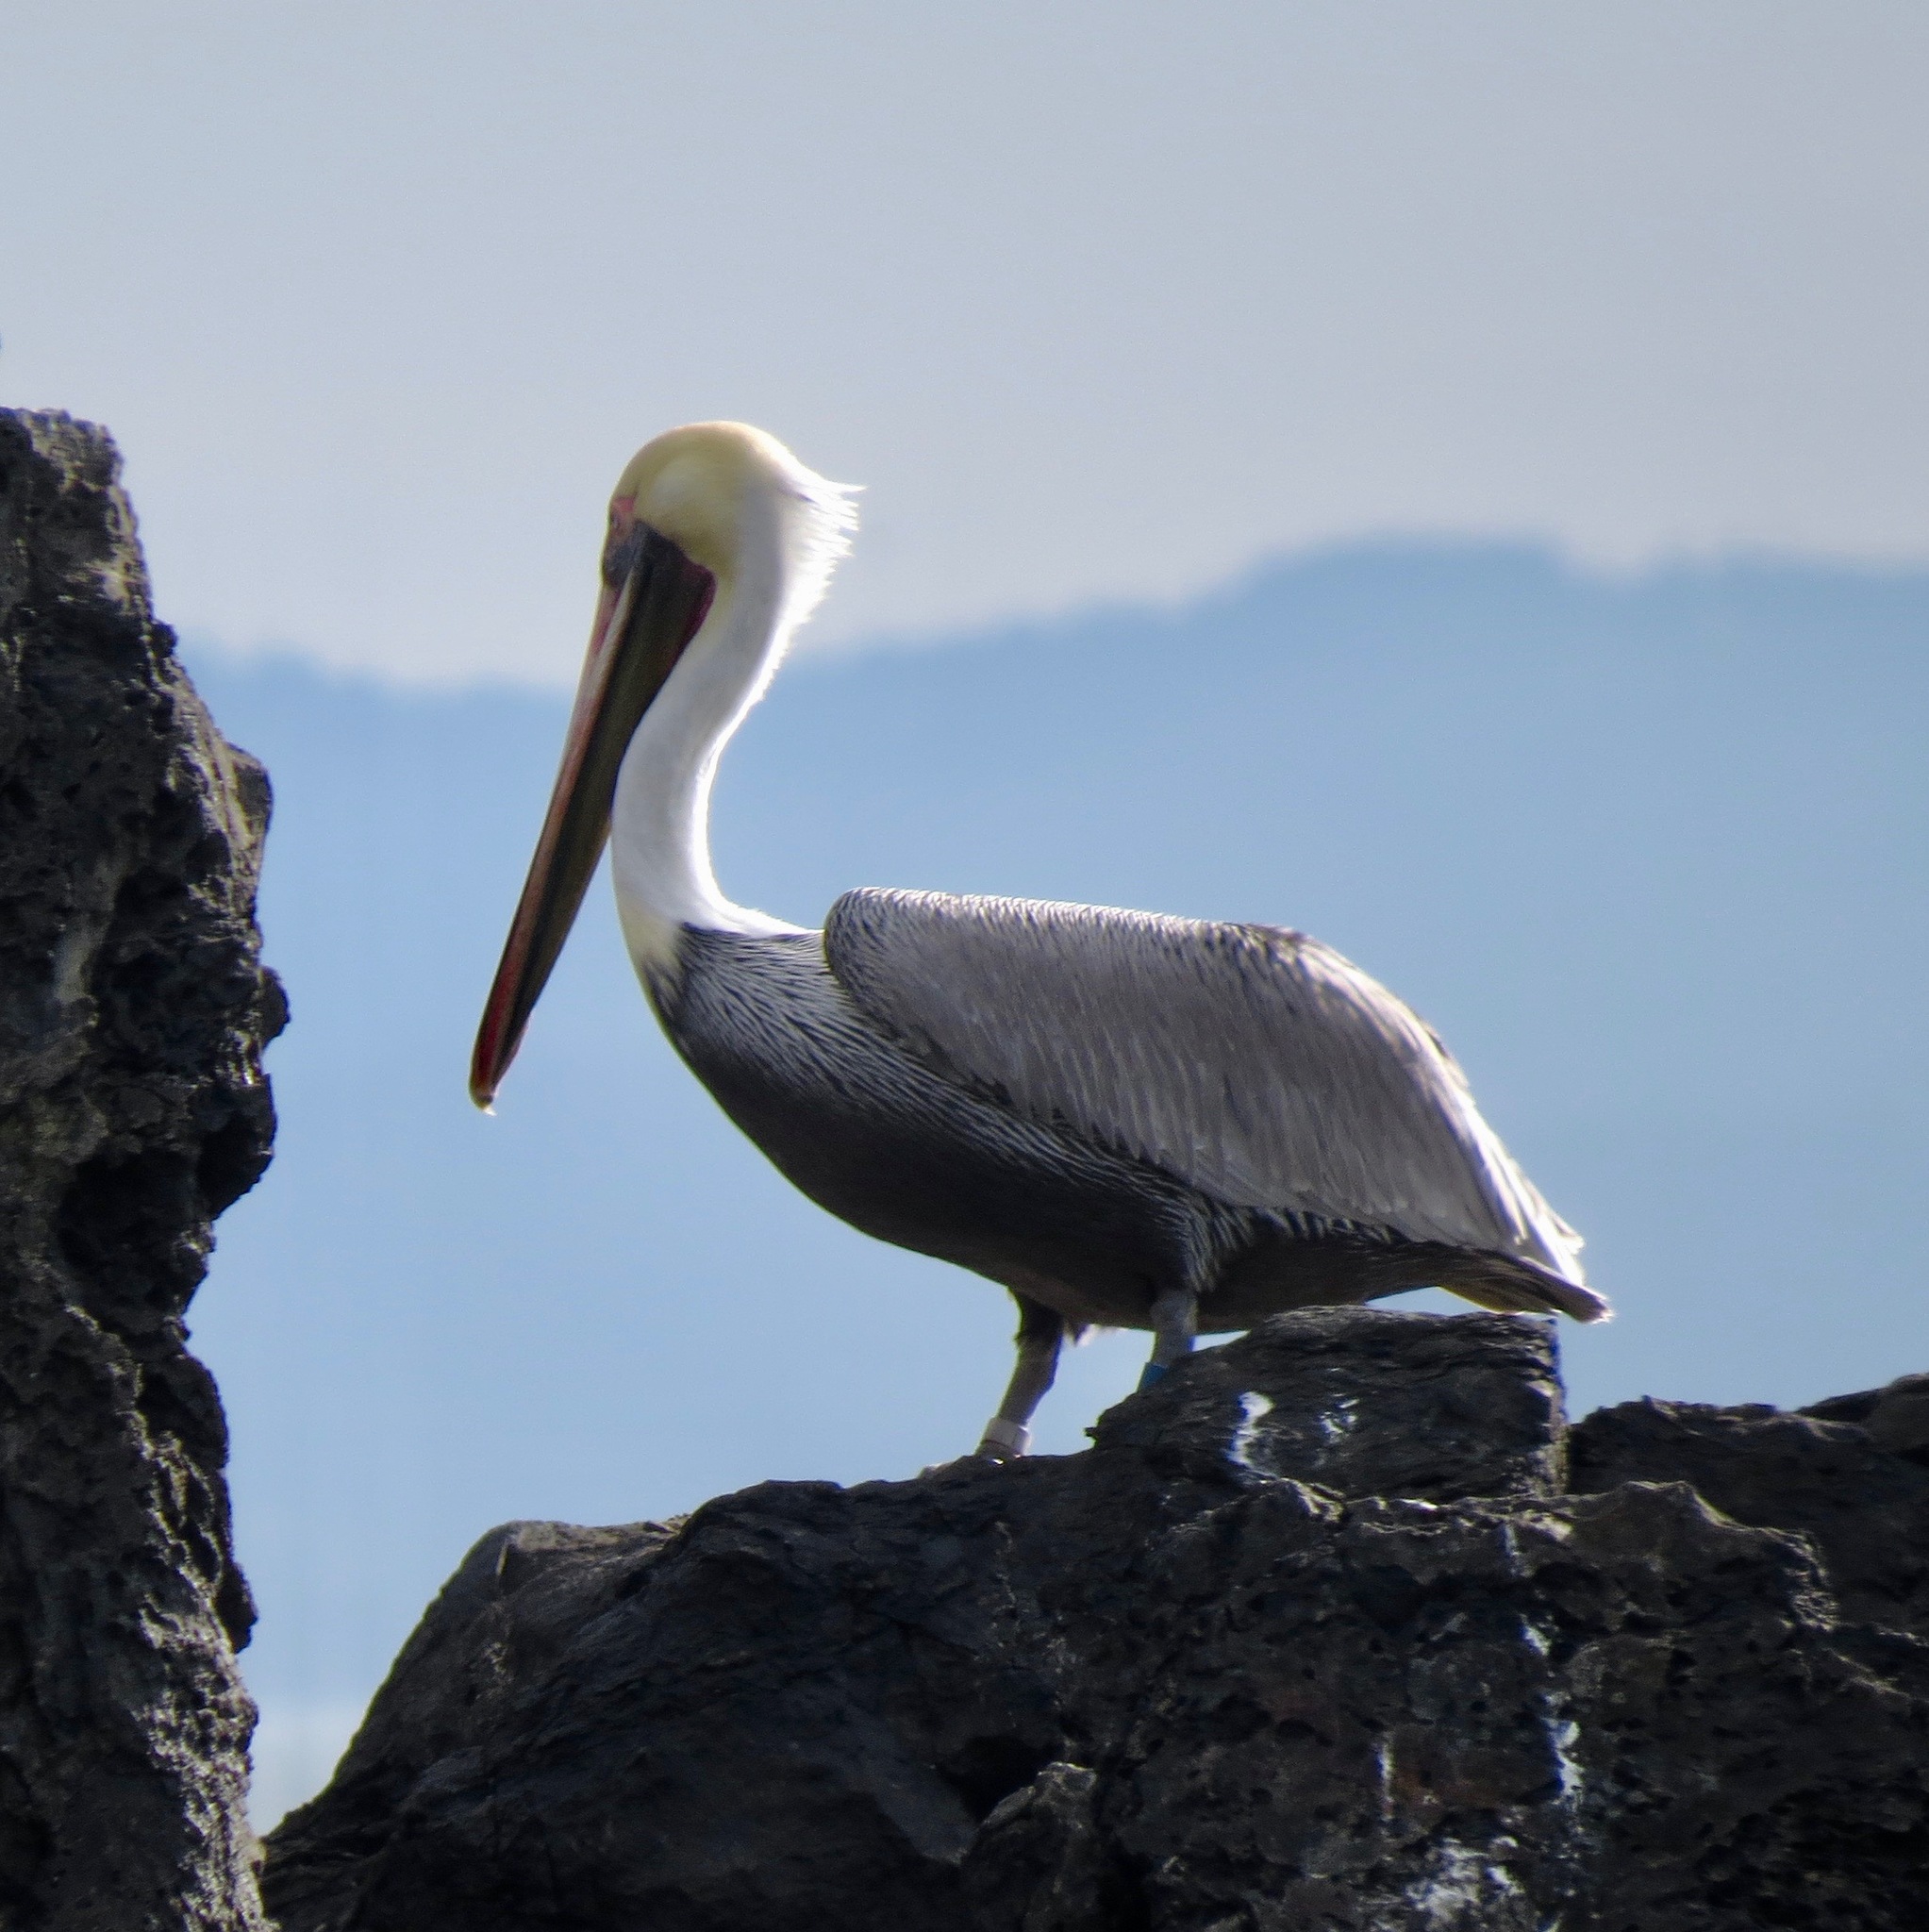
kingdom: Animalia
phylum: Chordata
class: Aves
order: Pelecaniformes
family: Pelecanidae
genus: Pelecanus
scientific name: Pelecanus occidentalis
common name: Brown pelican
